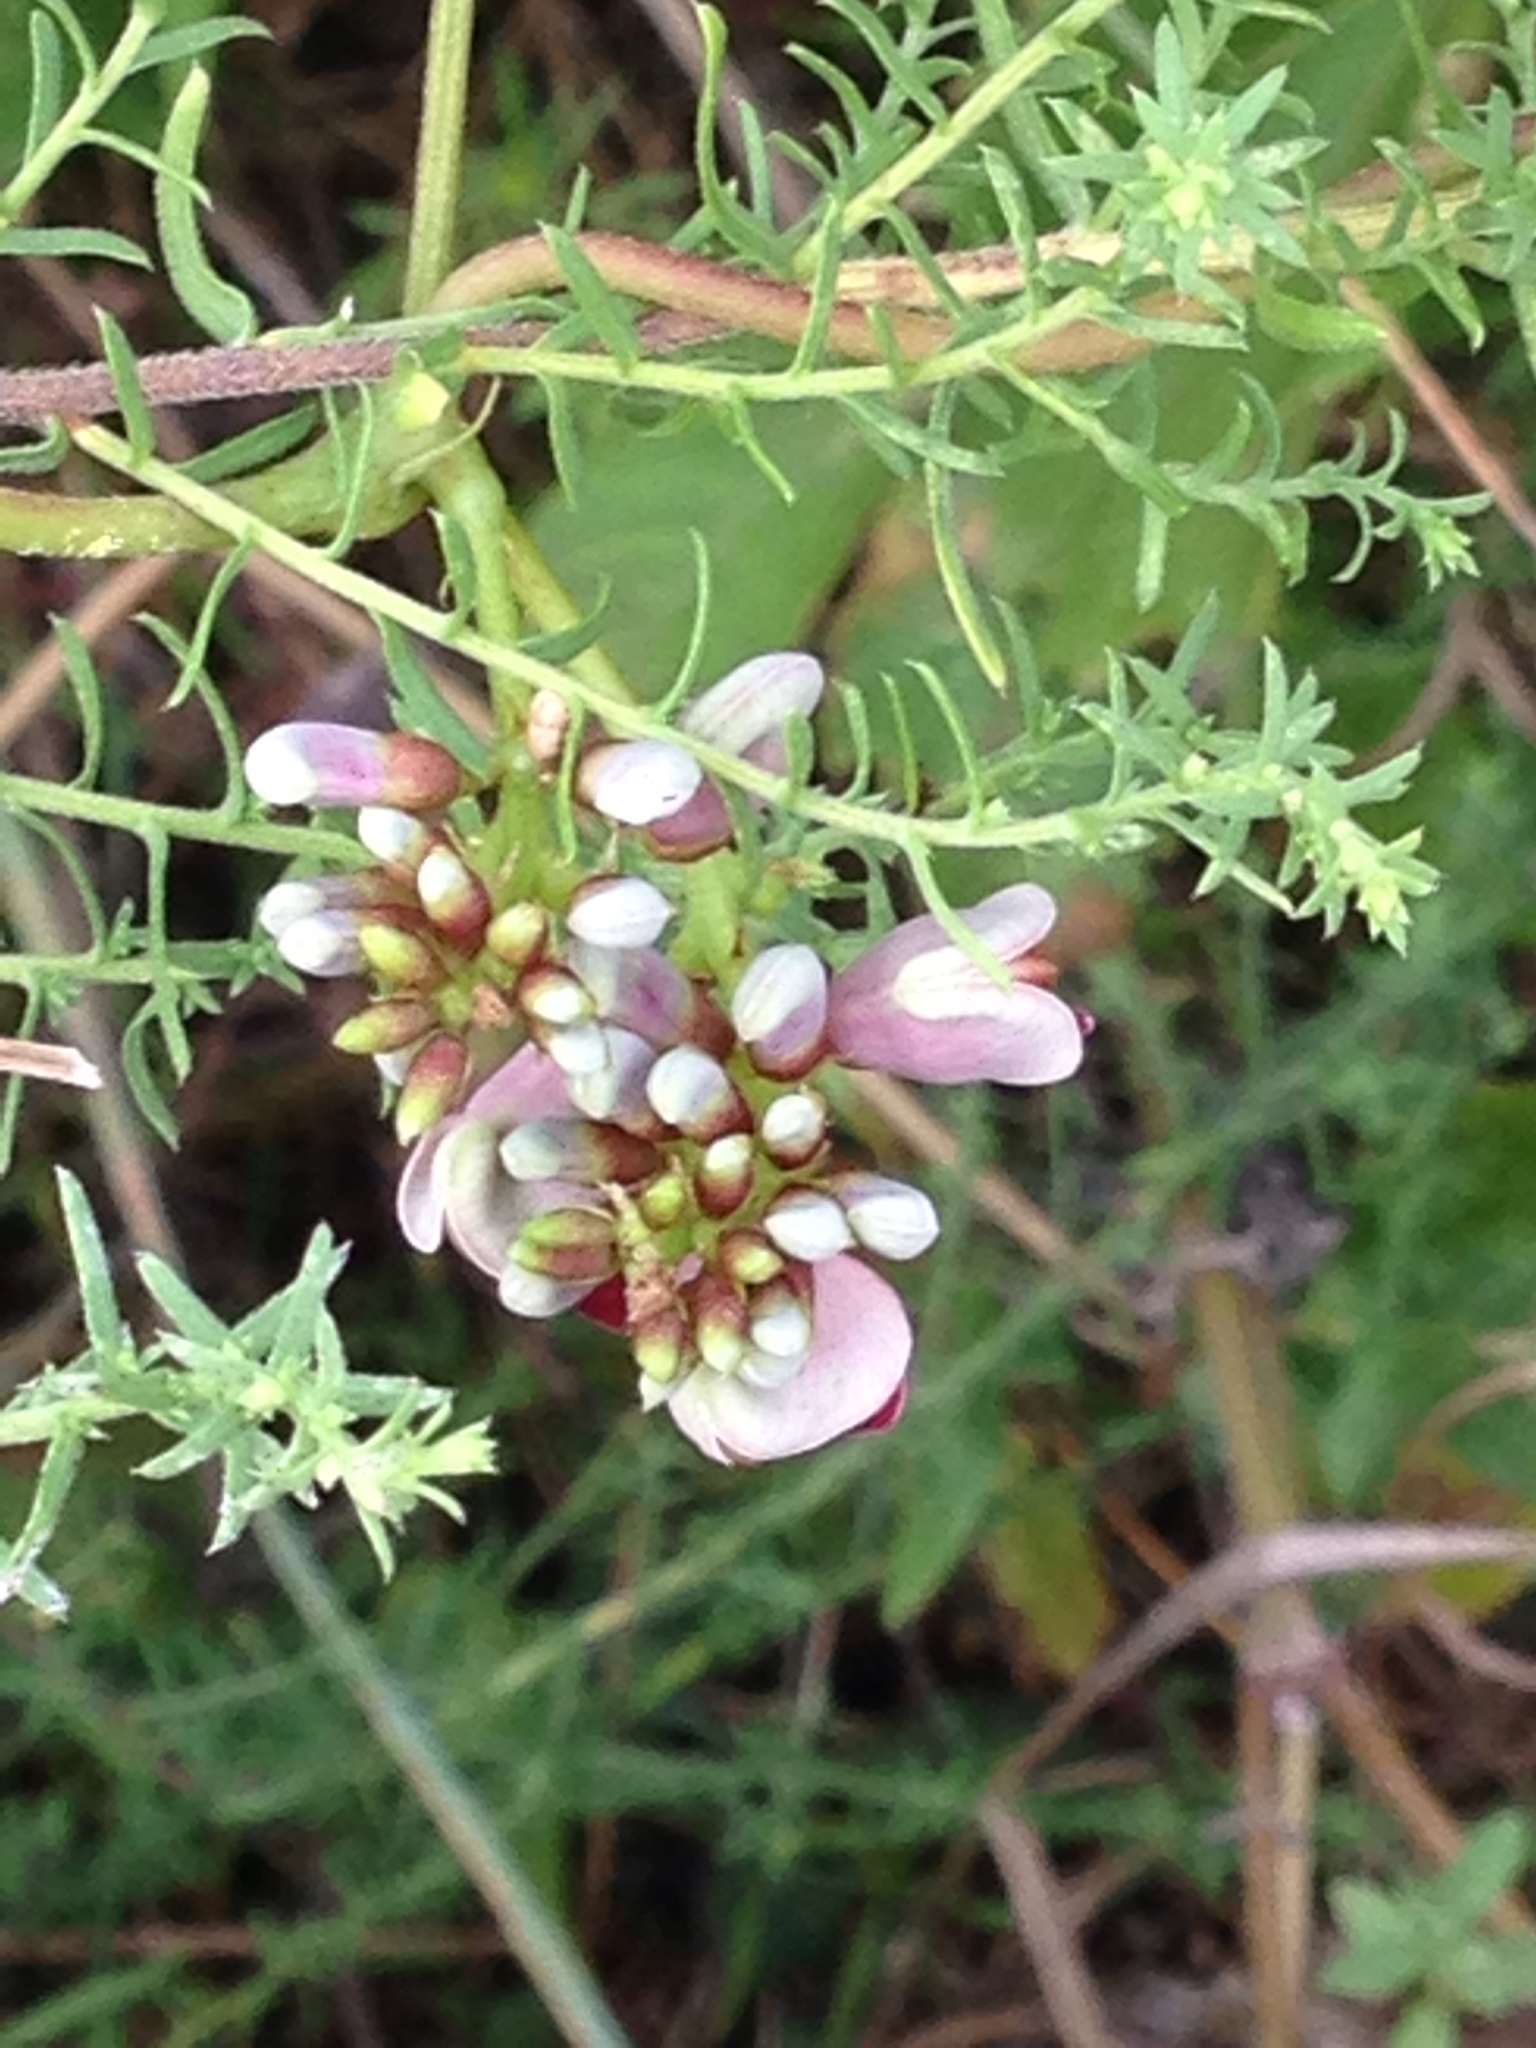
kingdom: Plantae
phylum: Tracheophyta
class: Magnoliopsida
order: Fabales
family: Fabaceae
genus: Apios
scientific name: Apios americana
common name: American potato-bean
